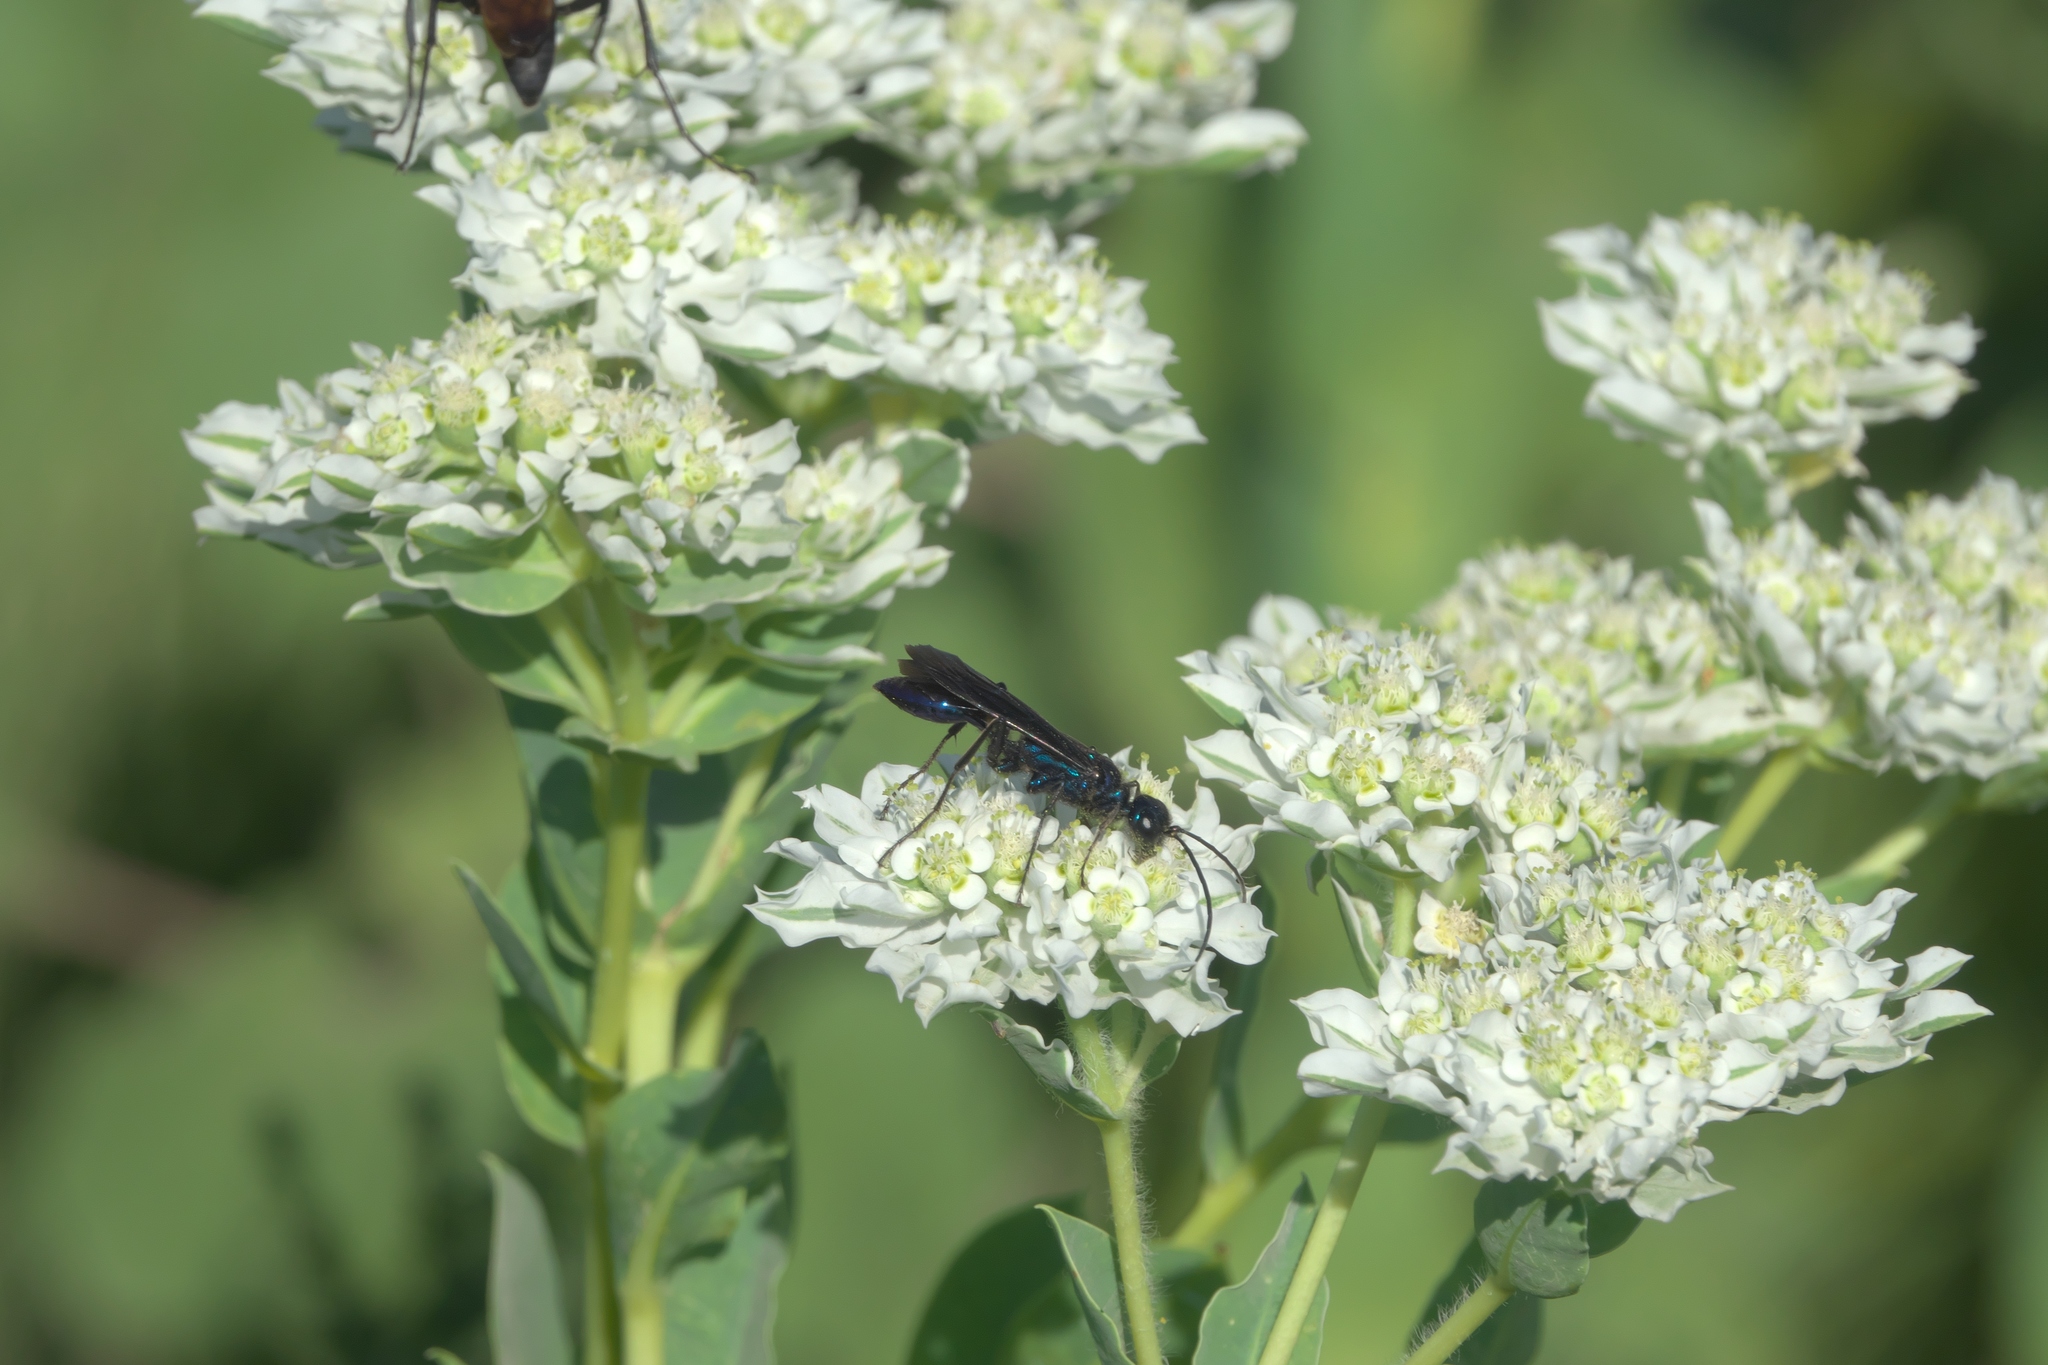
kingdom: Plantae
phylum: Tracheophyta
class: Magnoliopsida
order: Malpighiales
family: Euphorbiaceae
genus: Euphorbia
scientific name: Euphorbia marginata
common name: Ghostweed
